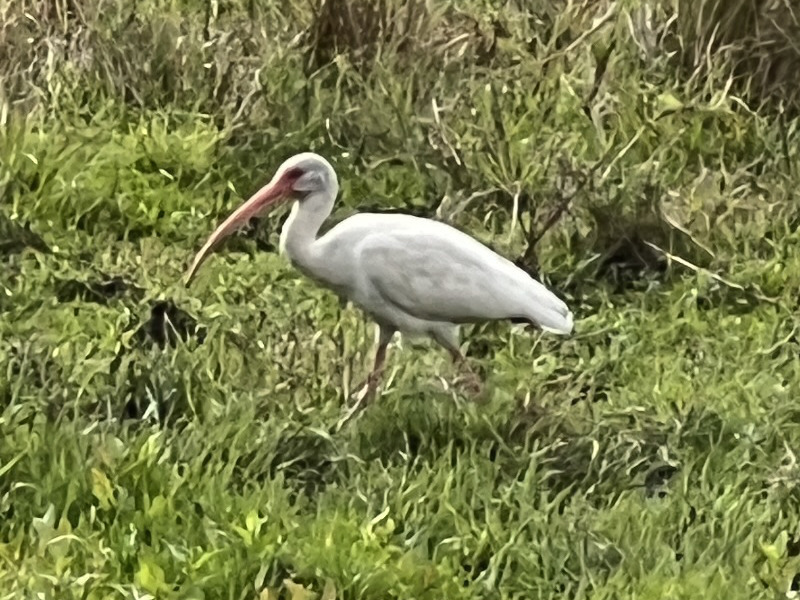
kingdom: Animalia
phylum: Chordata
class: Aves
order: Pelecaniformes
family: Threskiornithidae
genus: Eudocimus
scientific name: Eudocimus albus
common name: White ibis
